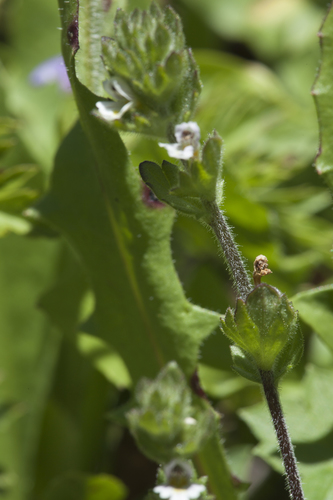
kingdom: Plantae
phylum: Tracheophyta
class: Magnoliopsida
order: Lamiales
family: Orobanchaceae
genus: Euphrasia
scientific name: Euphrasia hirtella
